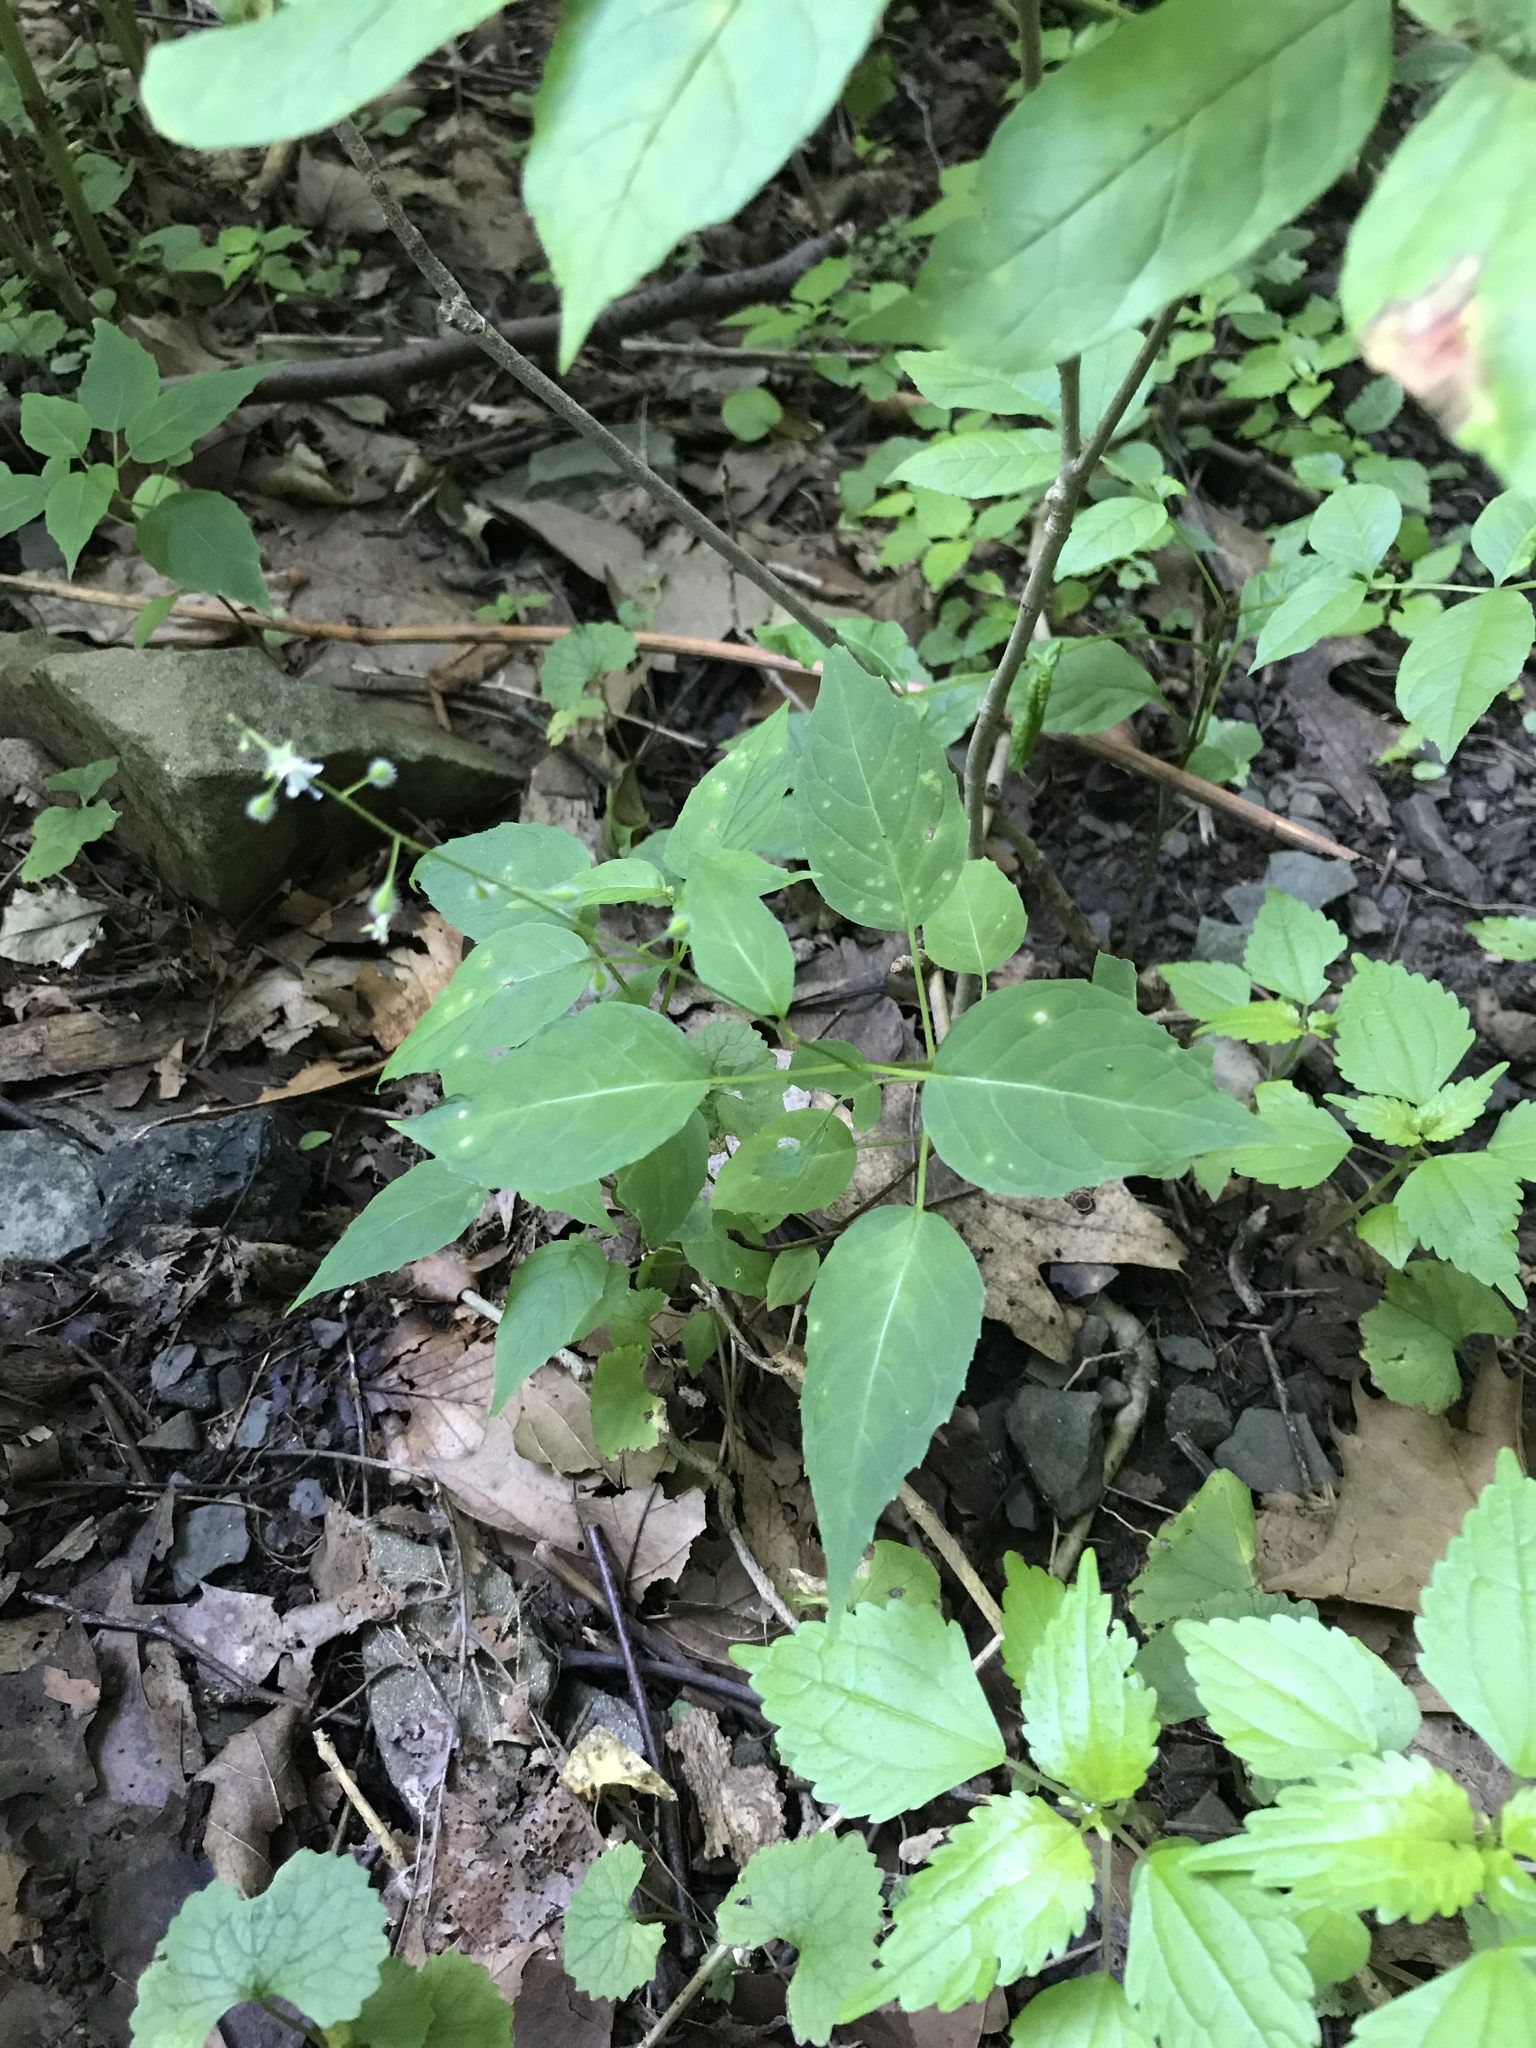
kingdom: Plantae
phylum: Tracheophyta
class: Magnoliopsida
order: Myrtales
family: Onagraceae
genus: Circaea
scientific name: Circaea canadensis
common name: Broad-leaved enchanter's nightshade
